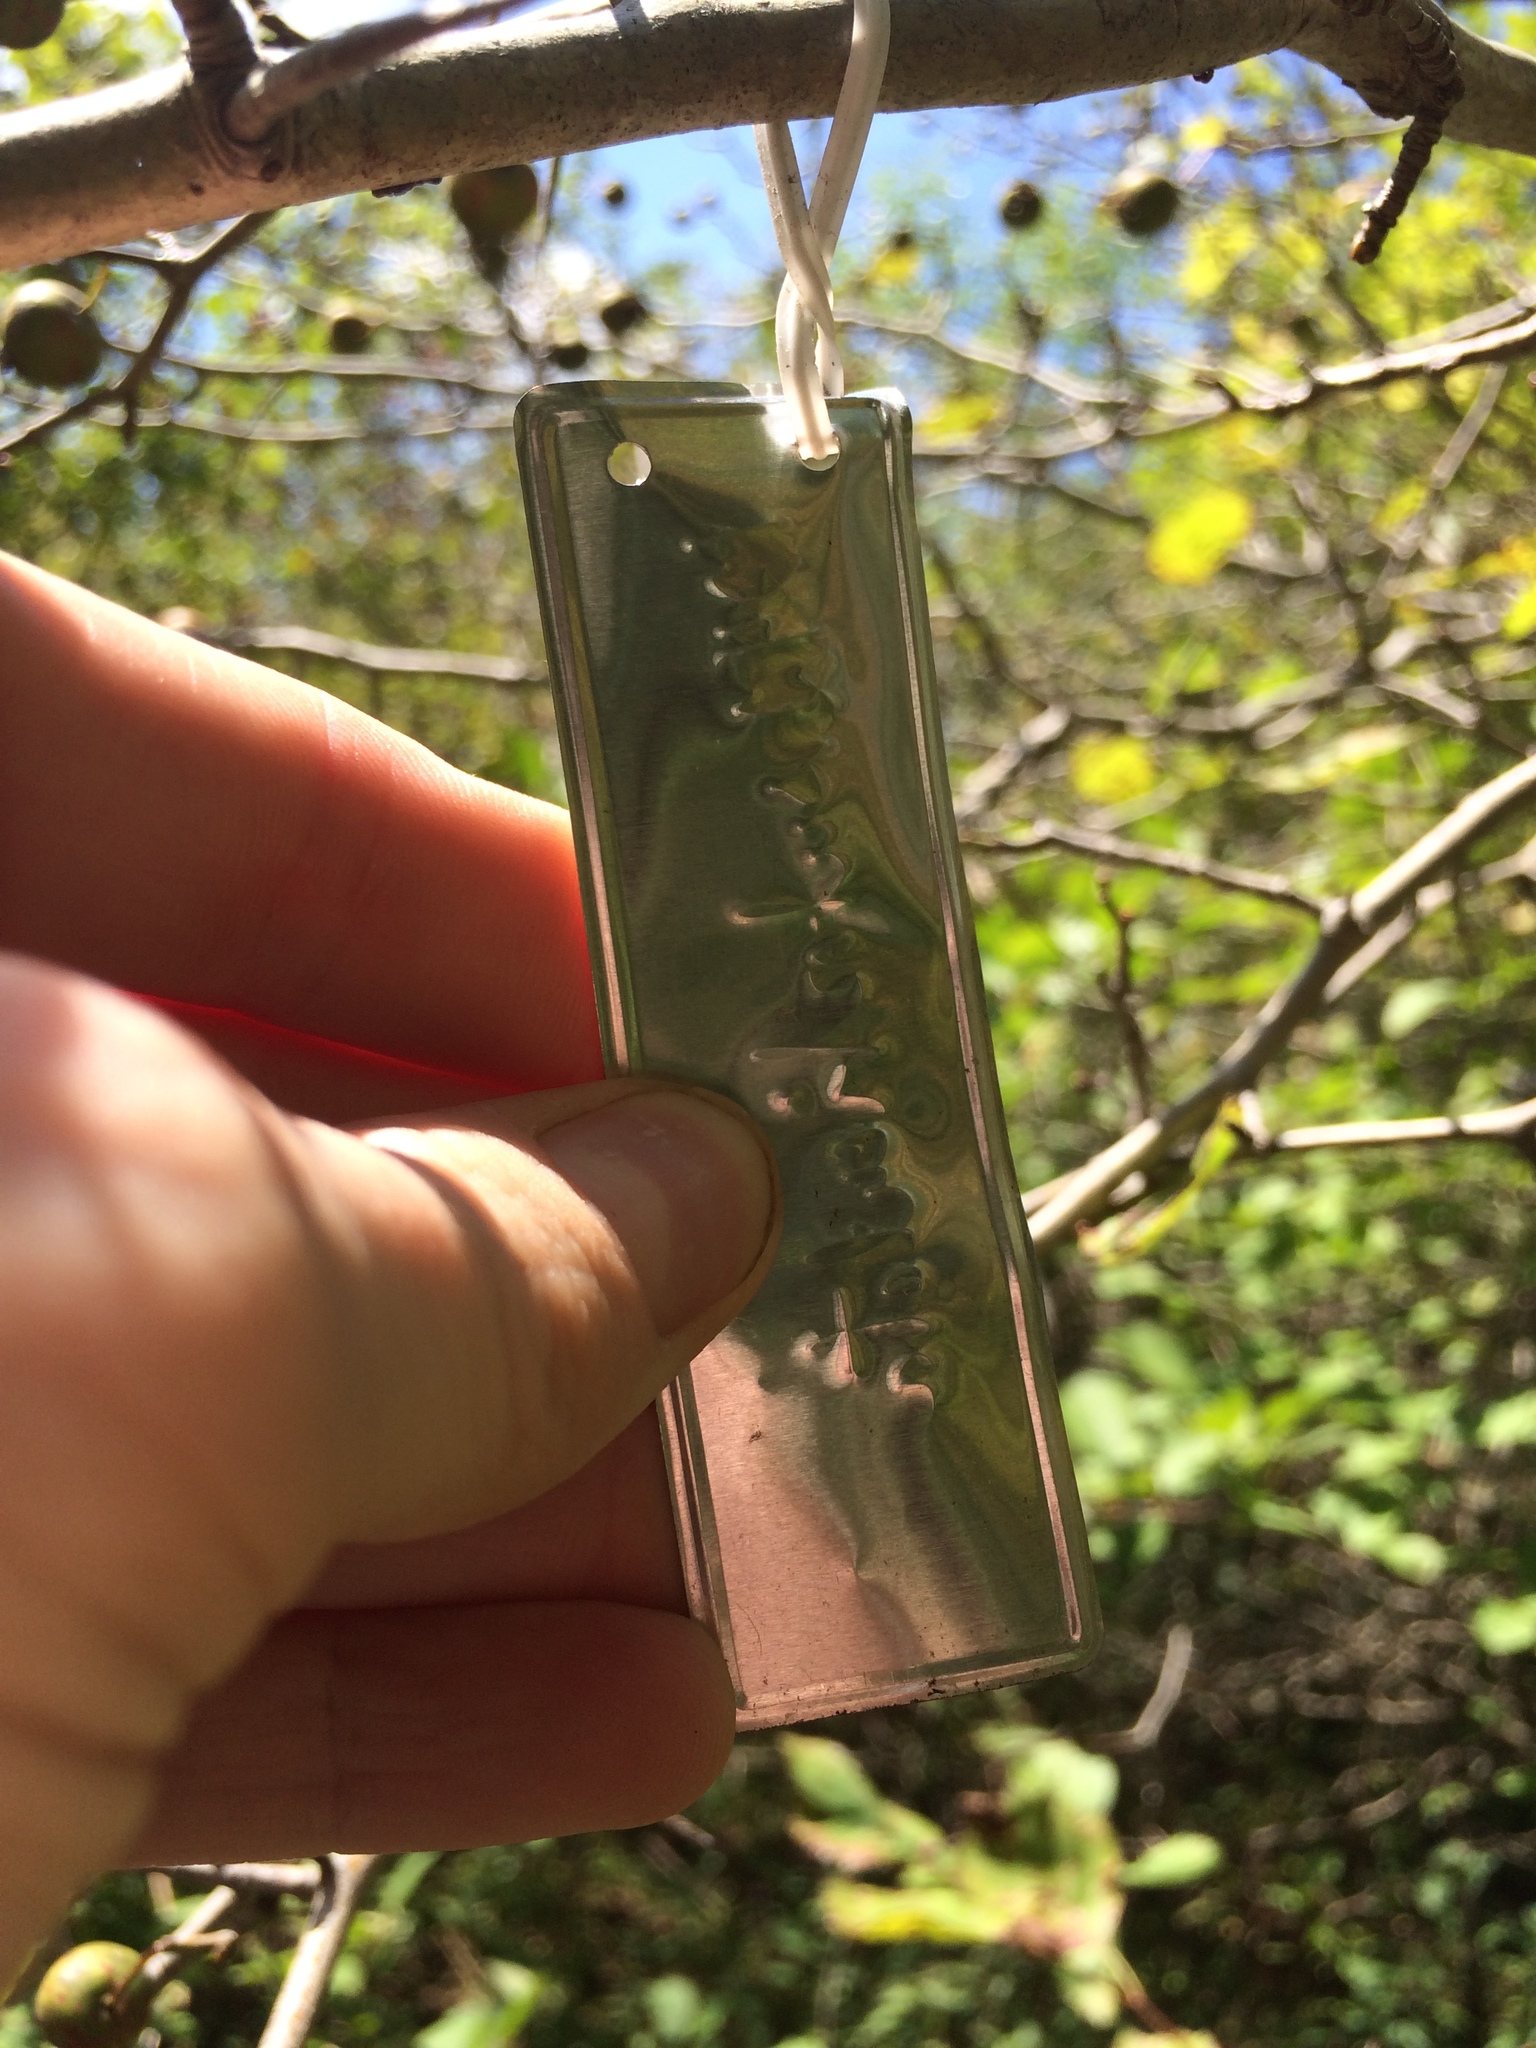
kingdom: Plantae
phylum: Tracheophyta
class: Magnoliopsida
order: Rosales
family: Rosaceae
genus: Crataegus
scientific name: Crataegus suborbiculata
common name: Caughnawaga hawthorn
